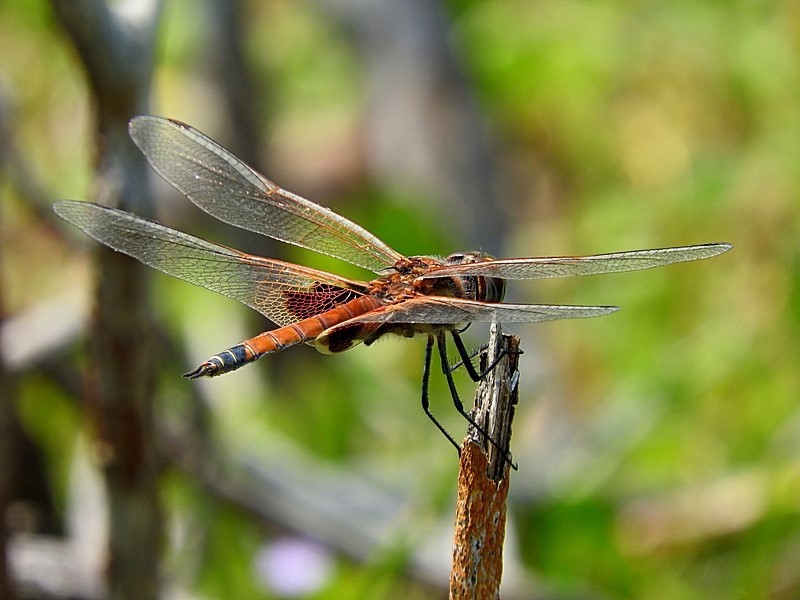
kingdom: Animalia
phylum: Arthropoda
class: Insecta
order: Odonata
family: Libellulidae
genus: Tramea
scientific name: Tramea loewii
